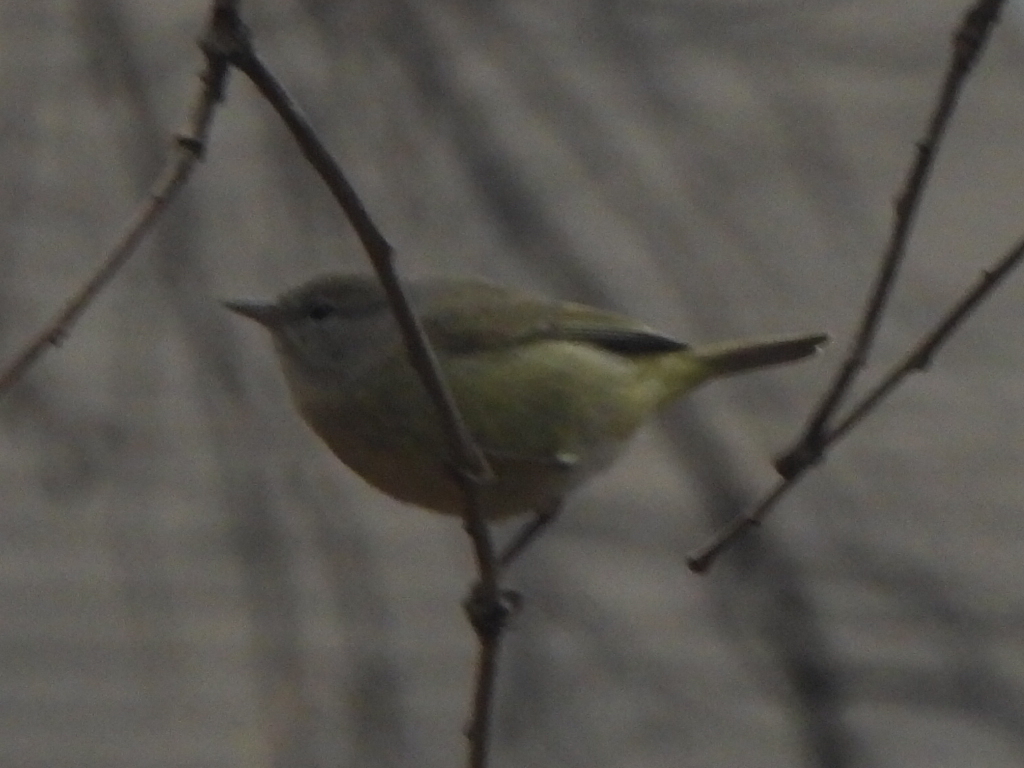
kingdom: Animalia
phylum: Chordata
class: Aves
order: Passeriformes
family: Parulidae
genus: Leiothlypis
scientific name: Leiothlypis celata
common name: Orange-crowned warbler
